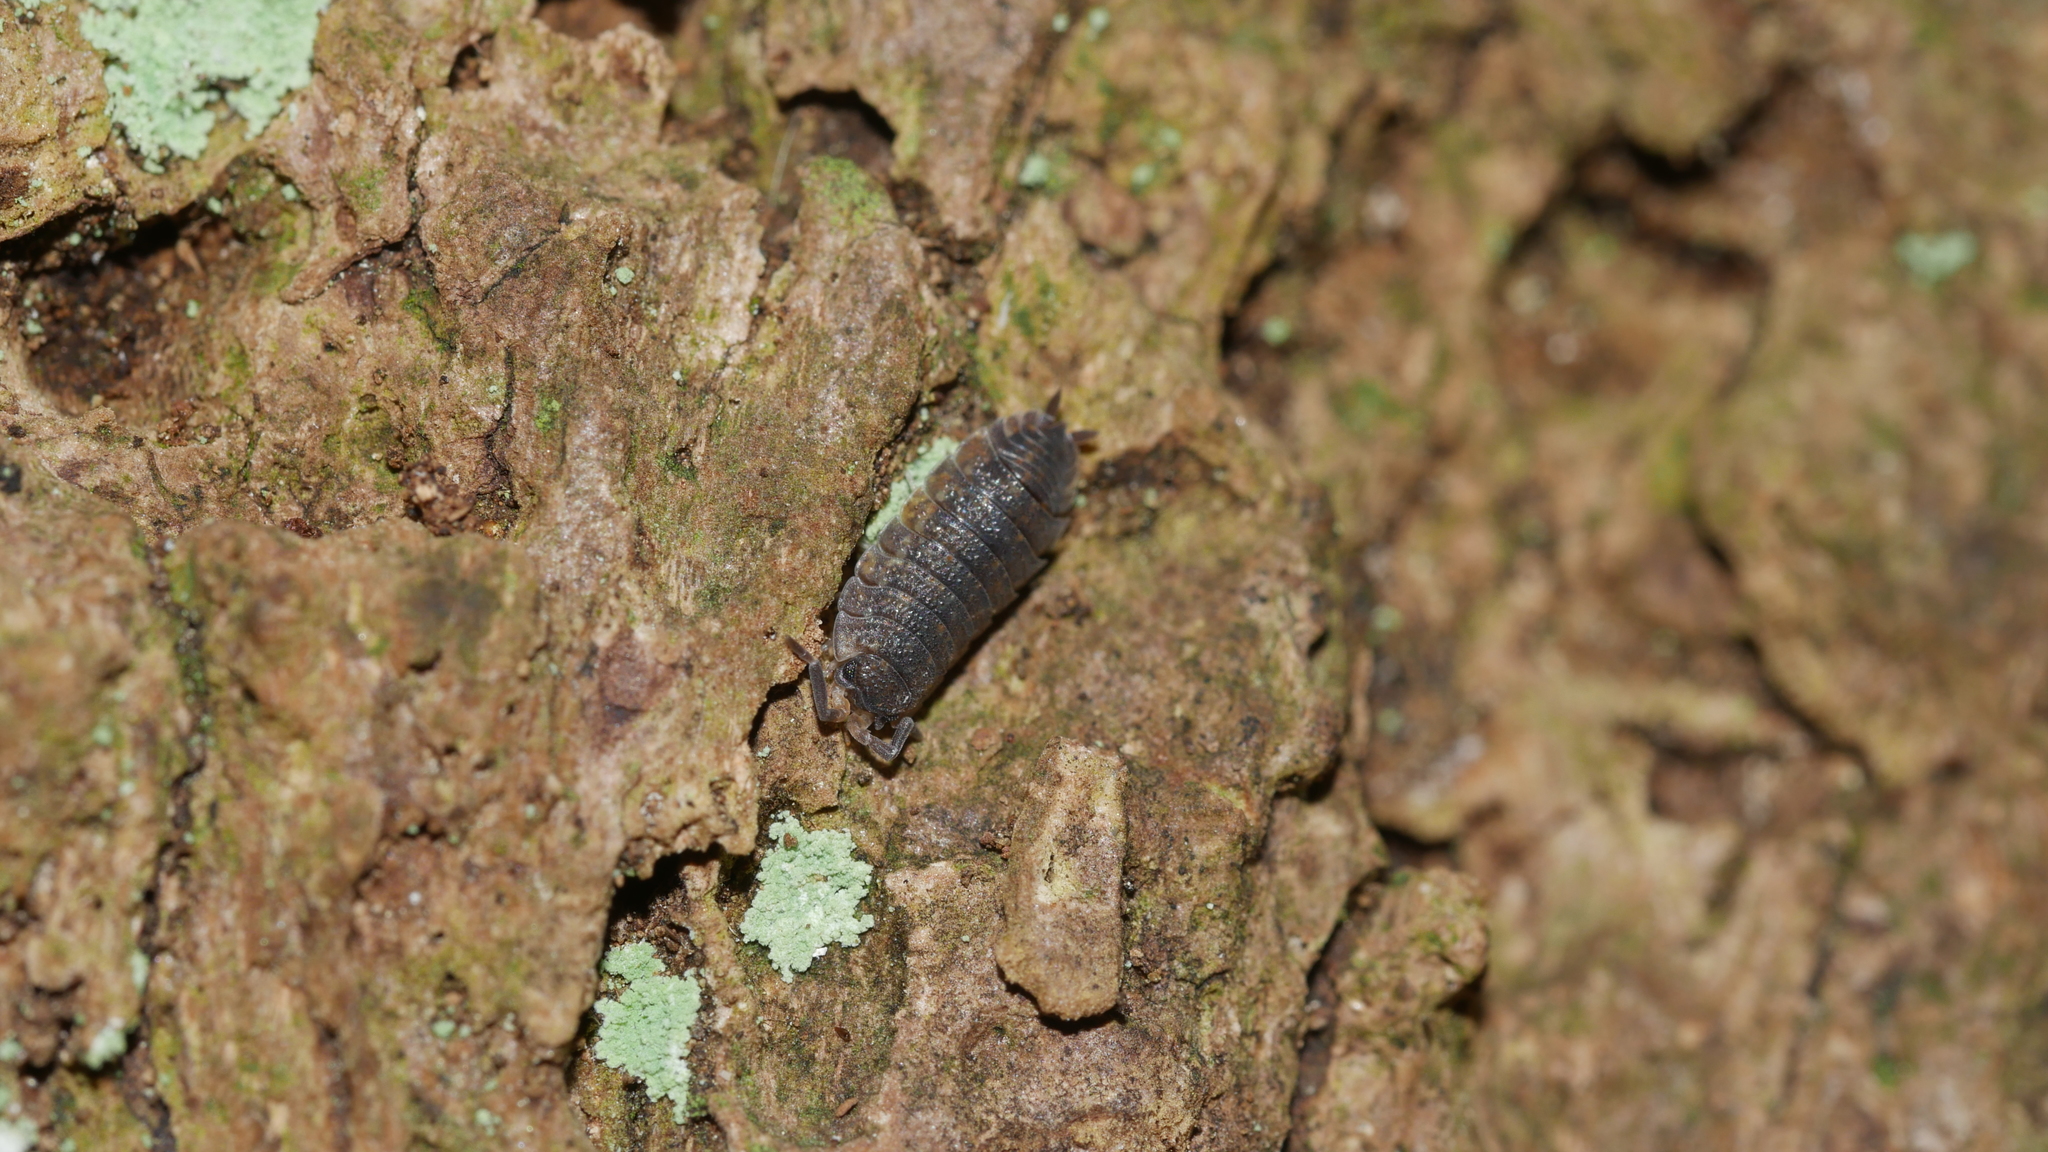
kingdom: Animalia
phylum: Arthropoda
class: Malacostraca
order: Isopoda
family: Porcellionidae
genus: Porcellio
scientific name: Porcellio scaber
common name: Common rough woodlouse
